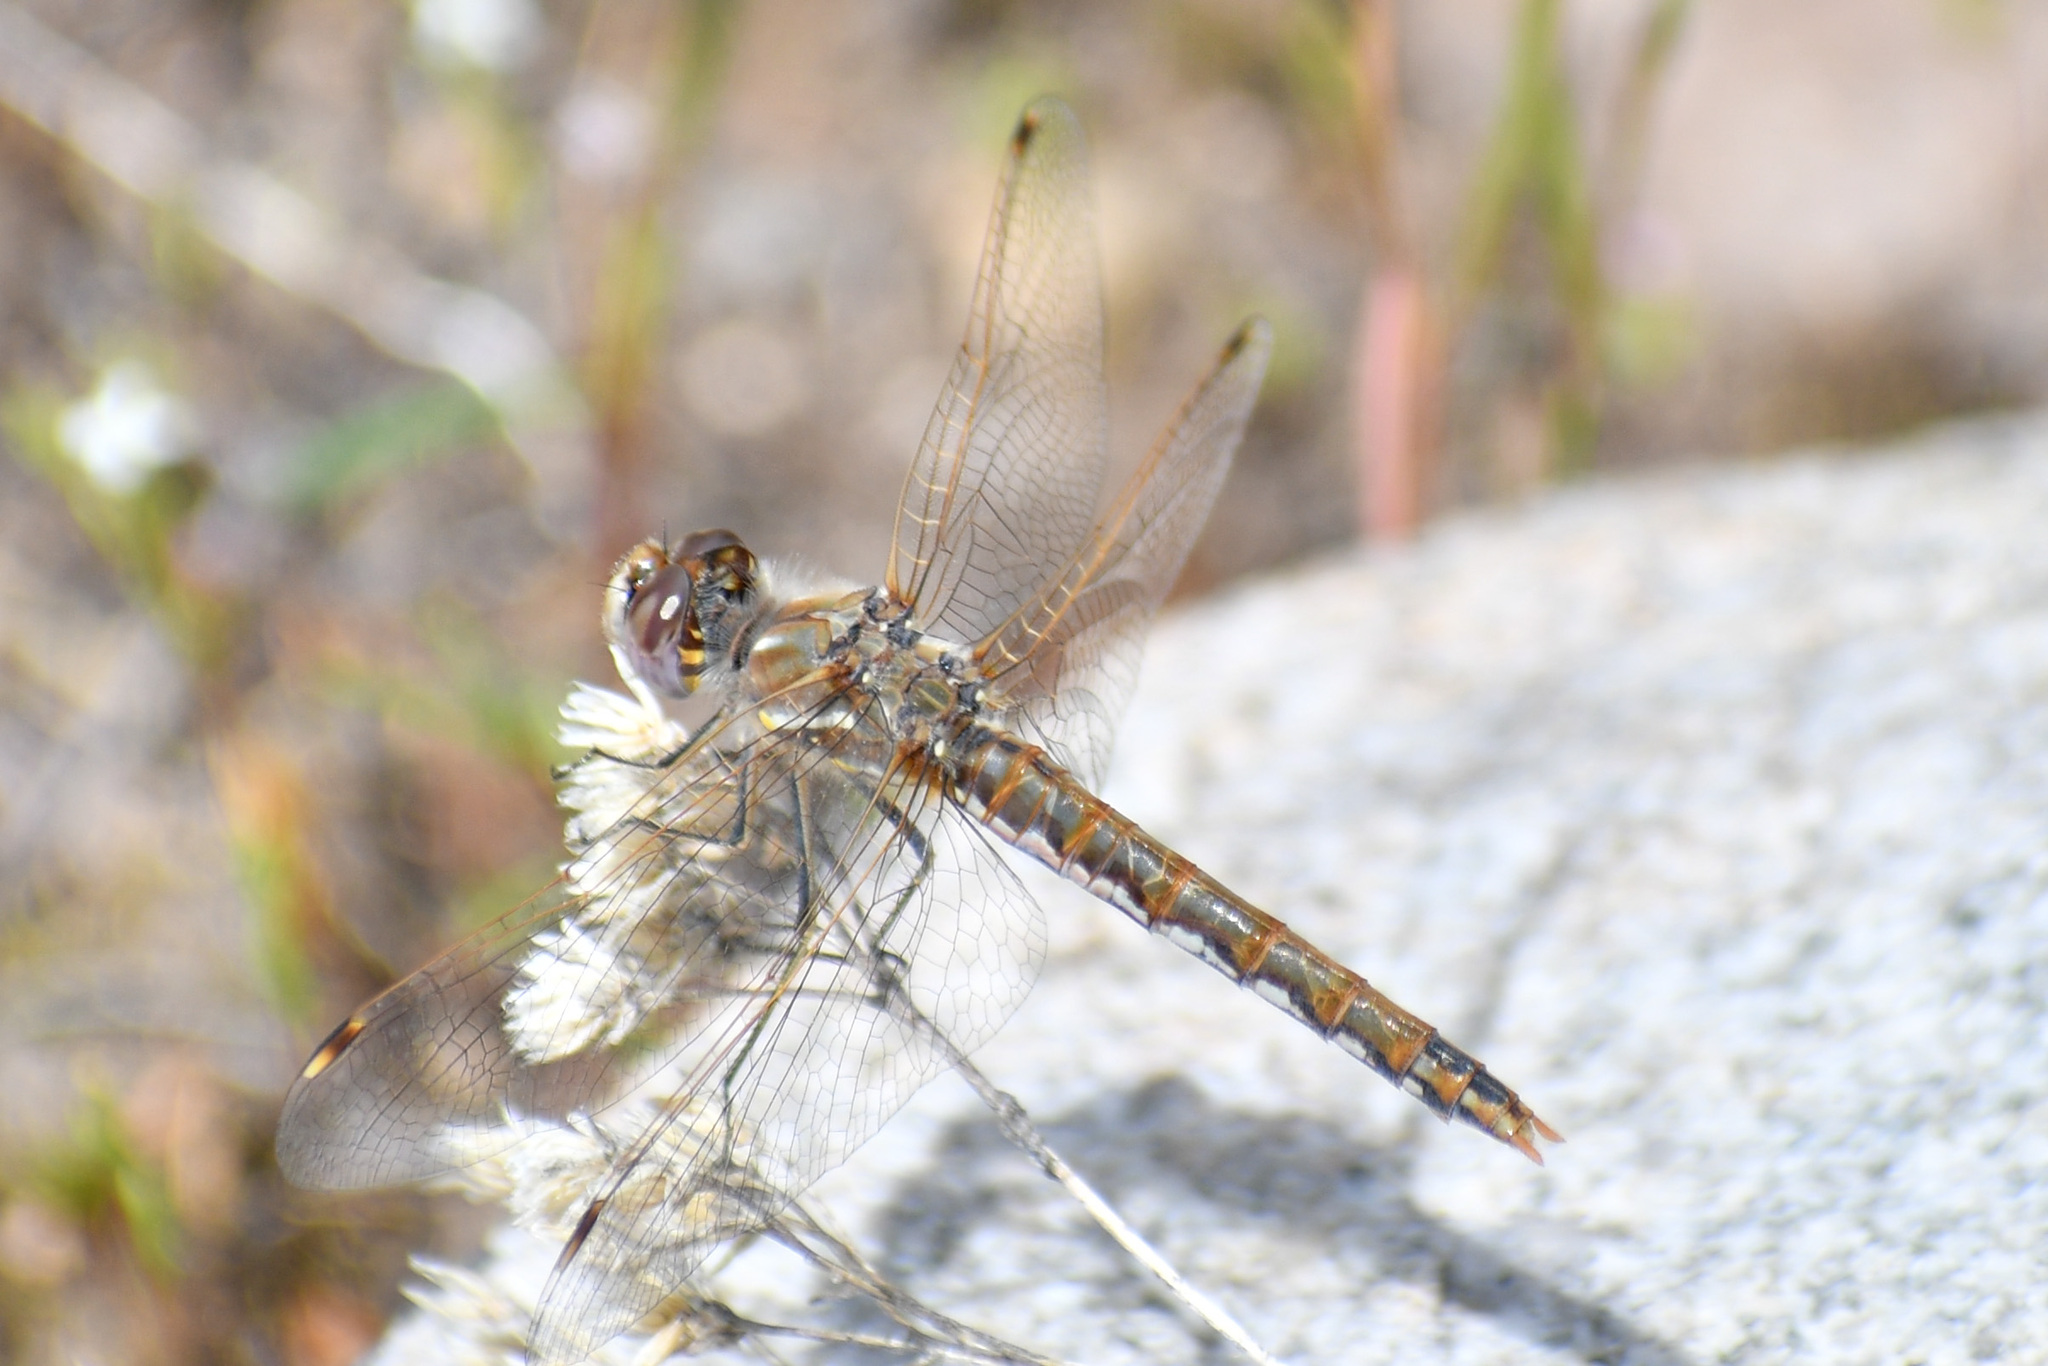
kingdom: Animalia
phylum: Arthropoda
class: Insecta
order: Odonata
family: Libellulidae
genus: Sympetrum
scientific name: Sympetrum corruptum
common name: Variegated meadowhawk
